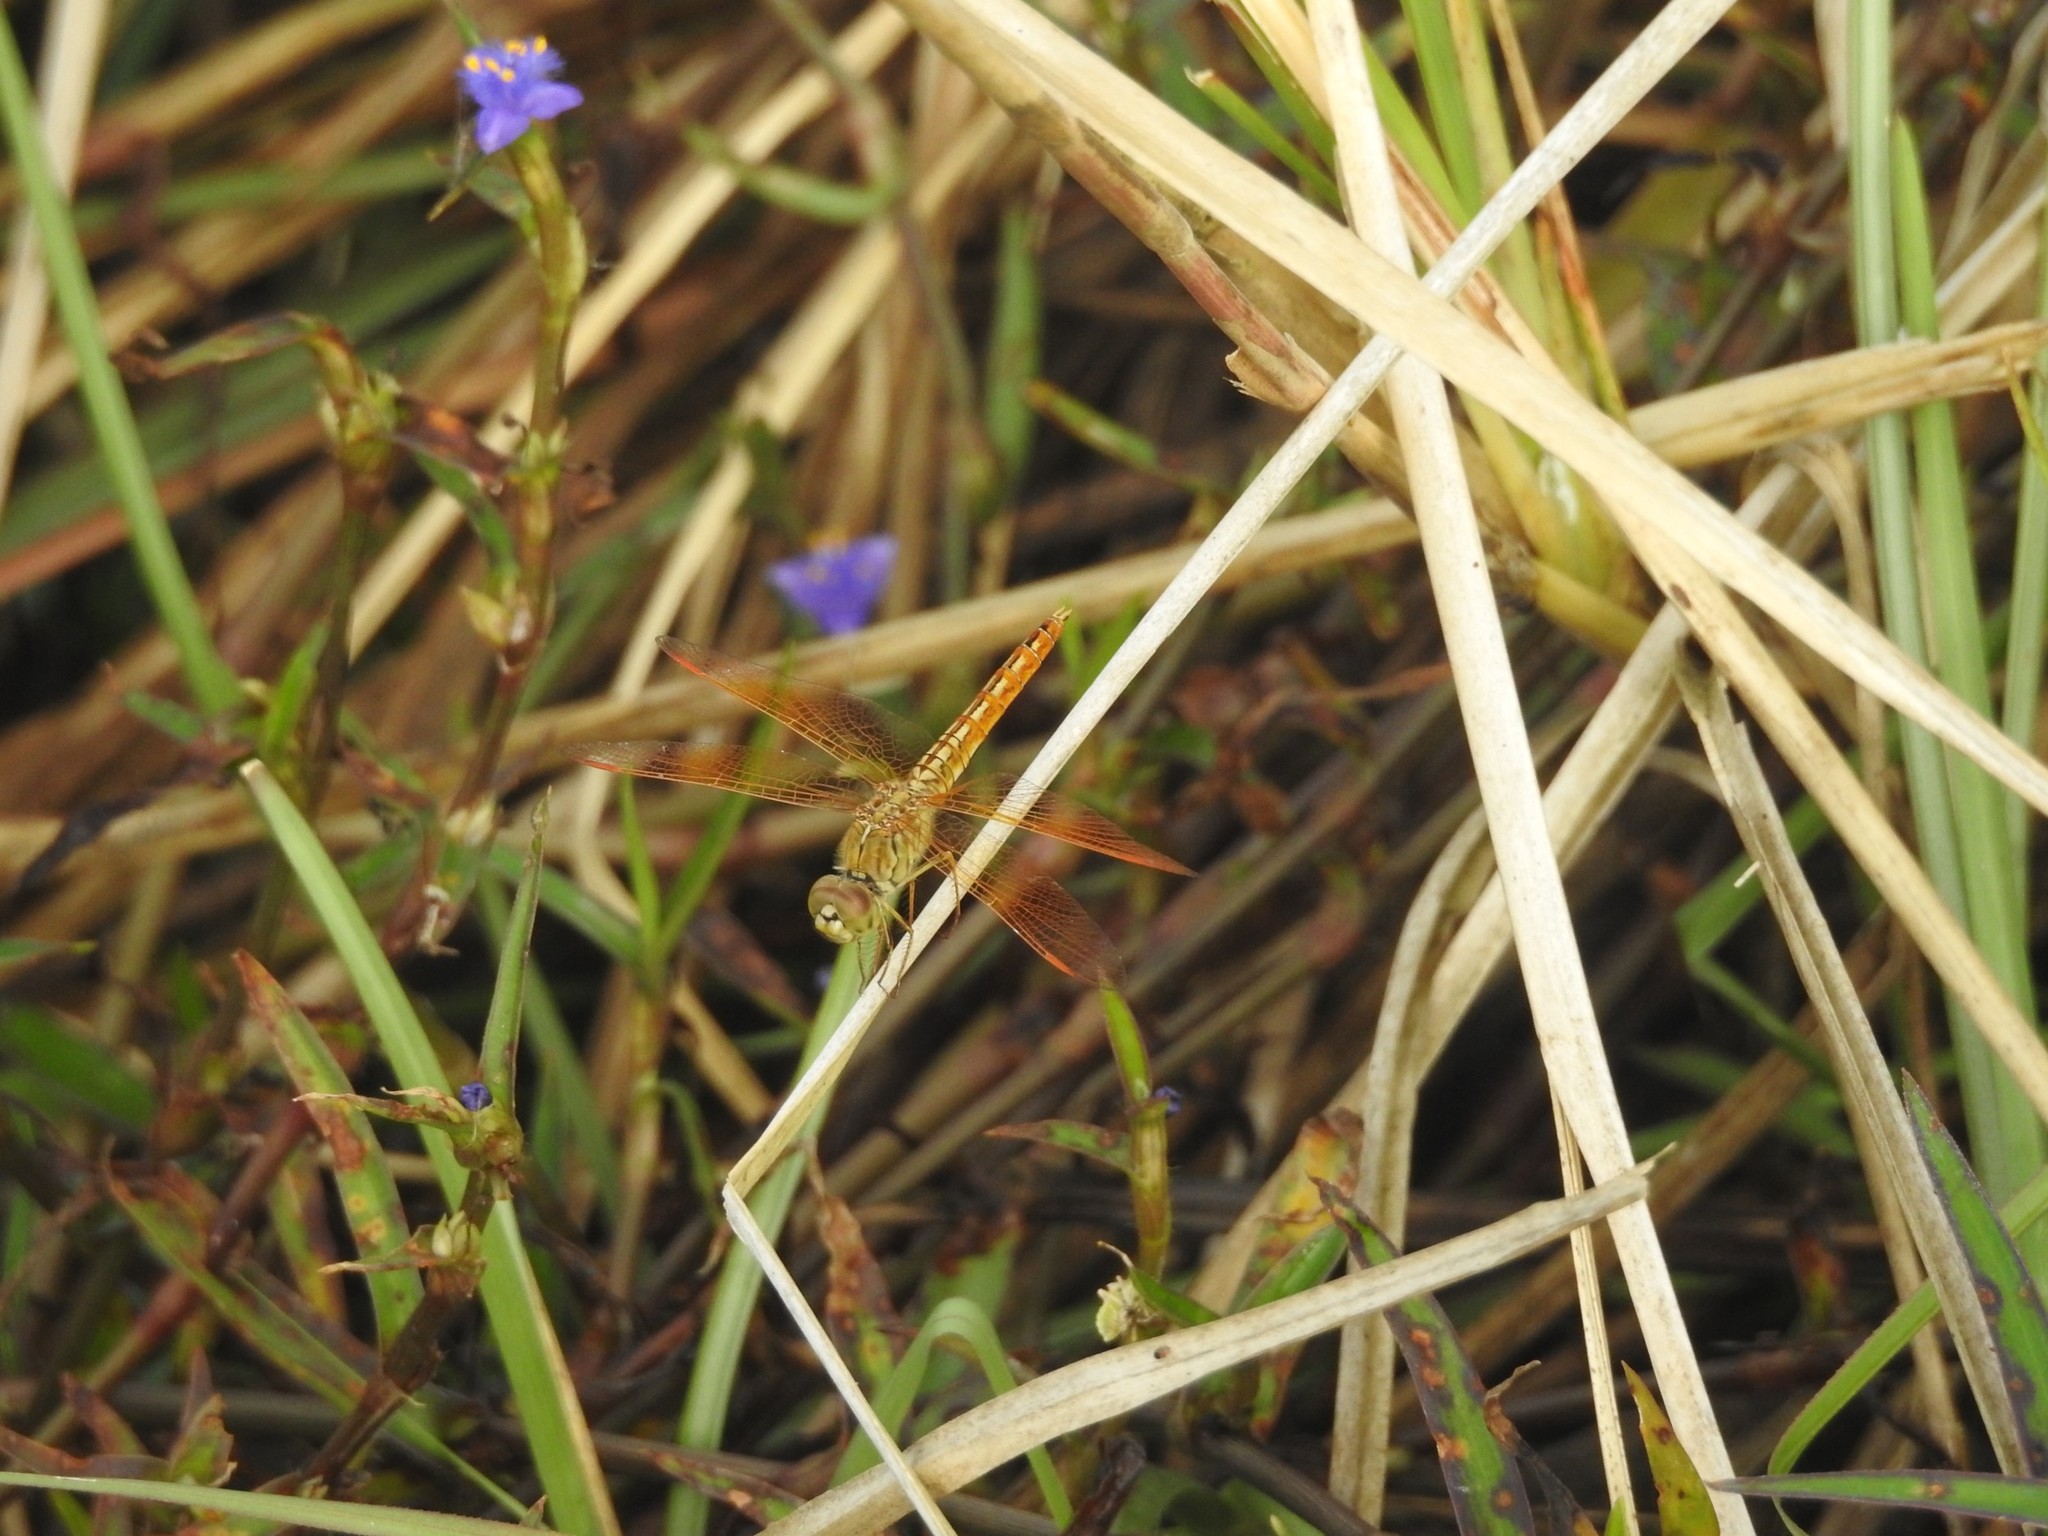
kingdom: Animalia
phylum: Arthropoda
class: Insecta
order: Odonata
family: Libellulidae
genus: Brachythemis
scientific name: Brachythemis contaminata
